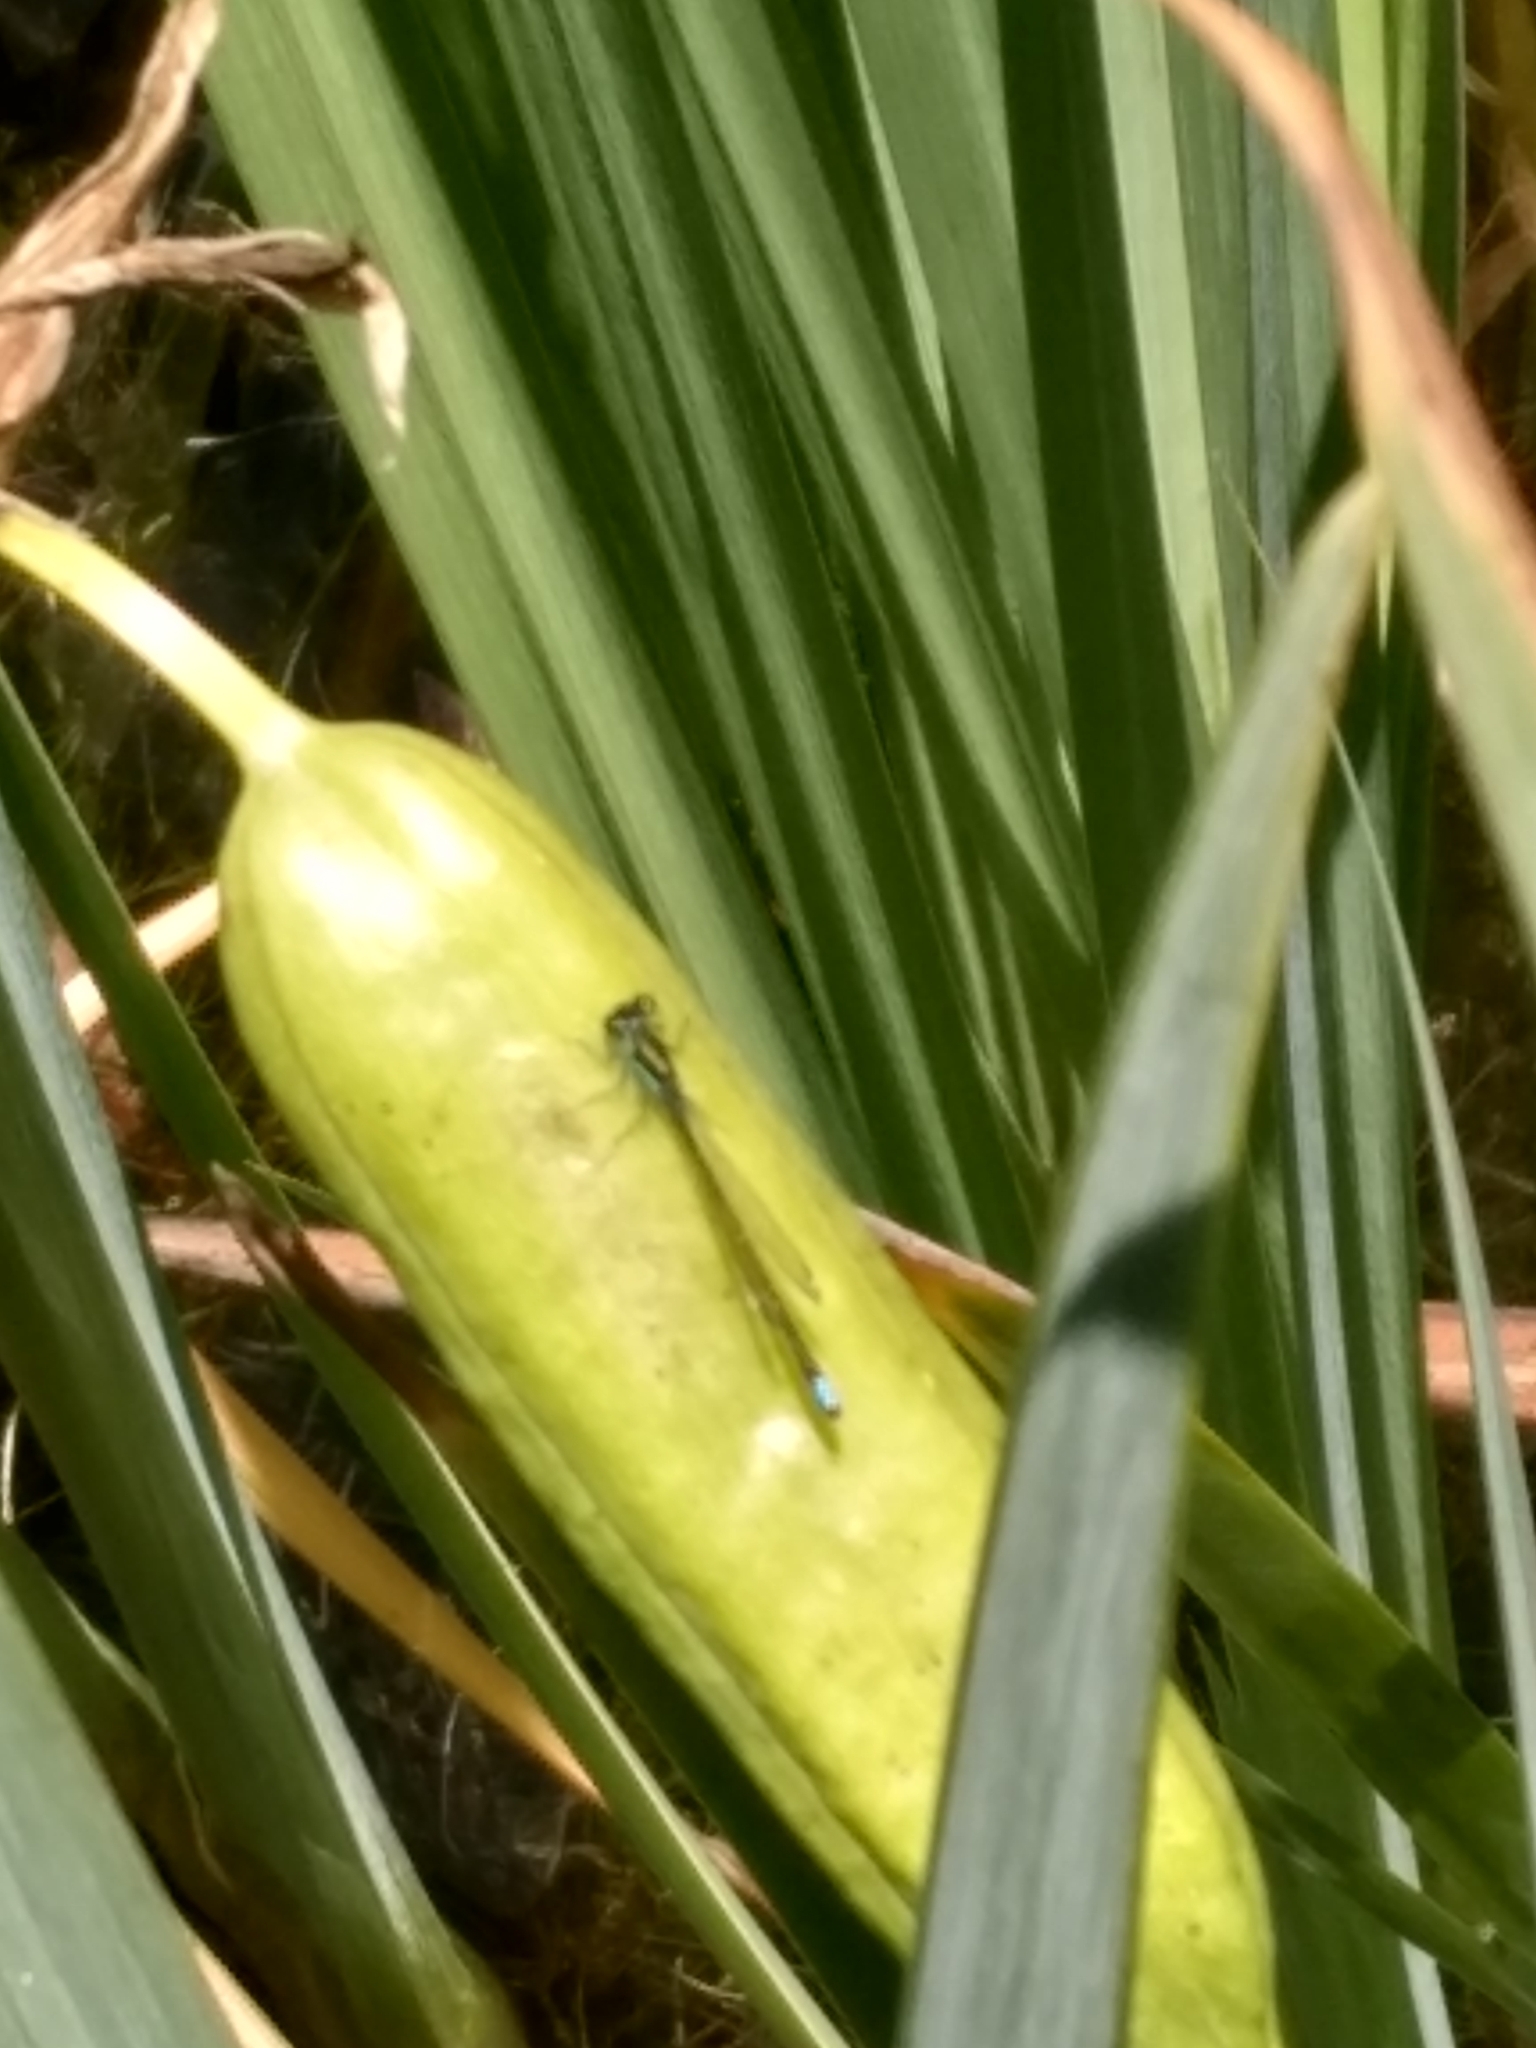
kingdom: Animalia
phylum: Arthropoda
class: Insecta
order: Odonata
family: Coenagrionidae
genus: Ischnura
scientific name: Ischnura denticollis
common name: Black-fronted forktail
